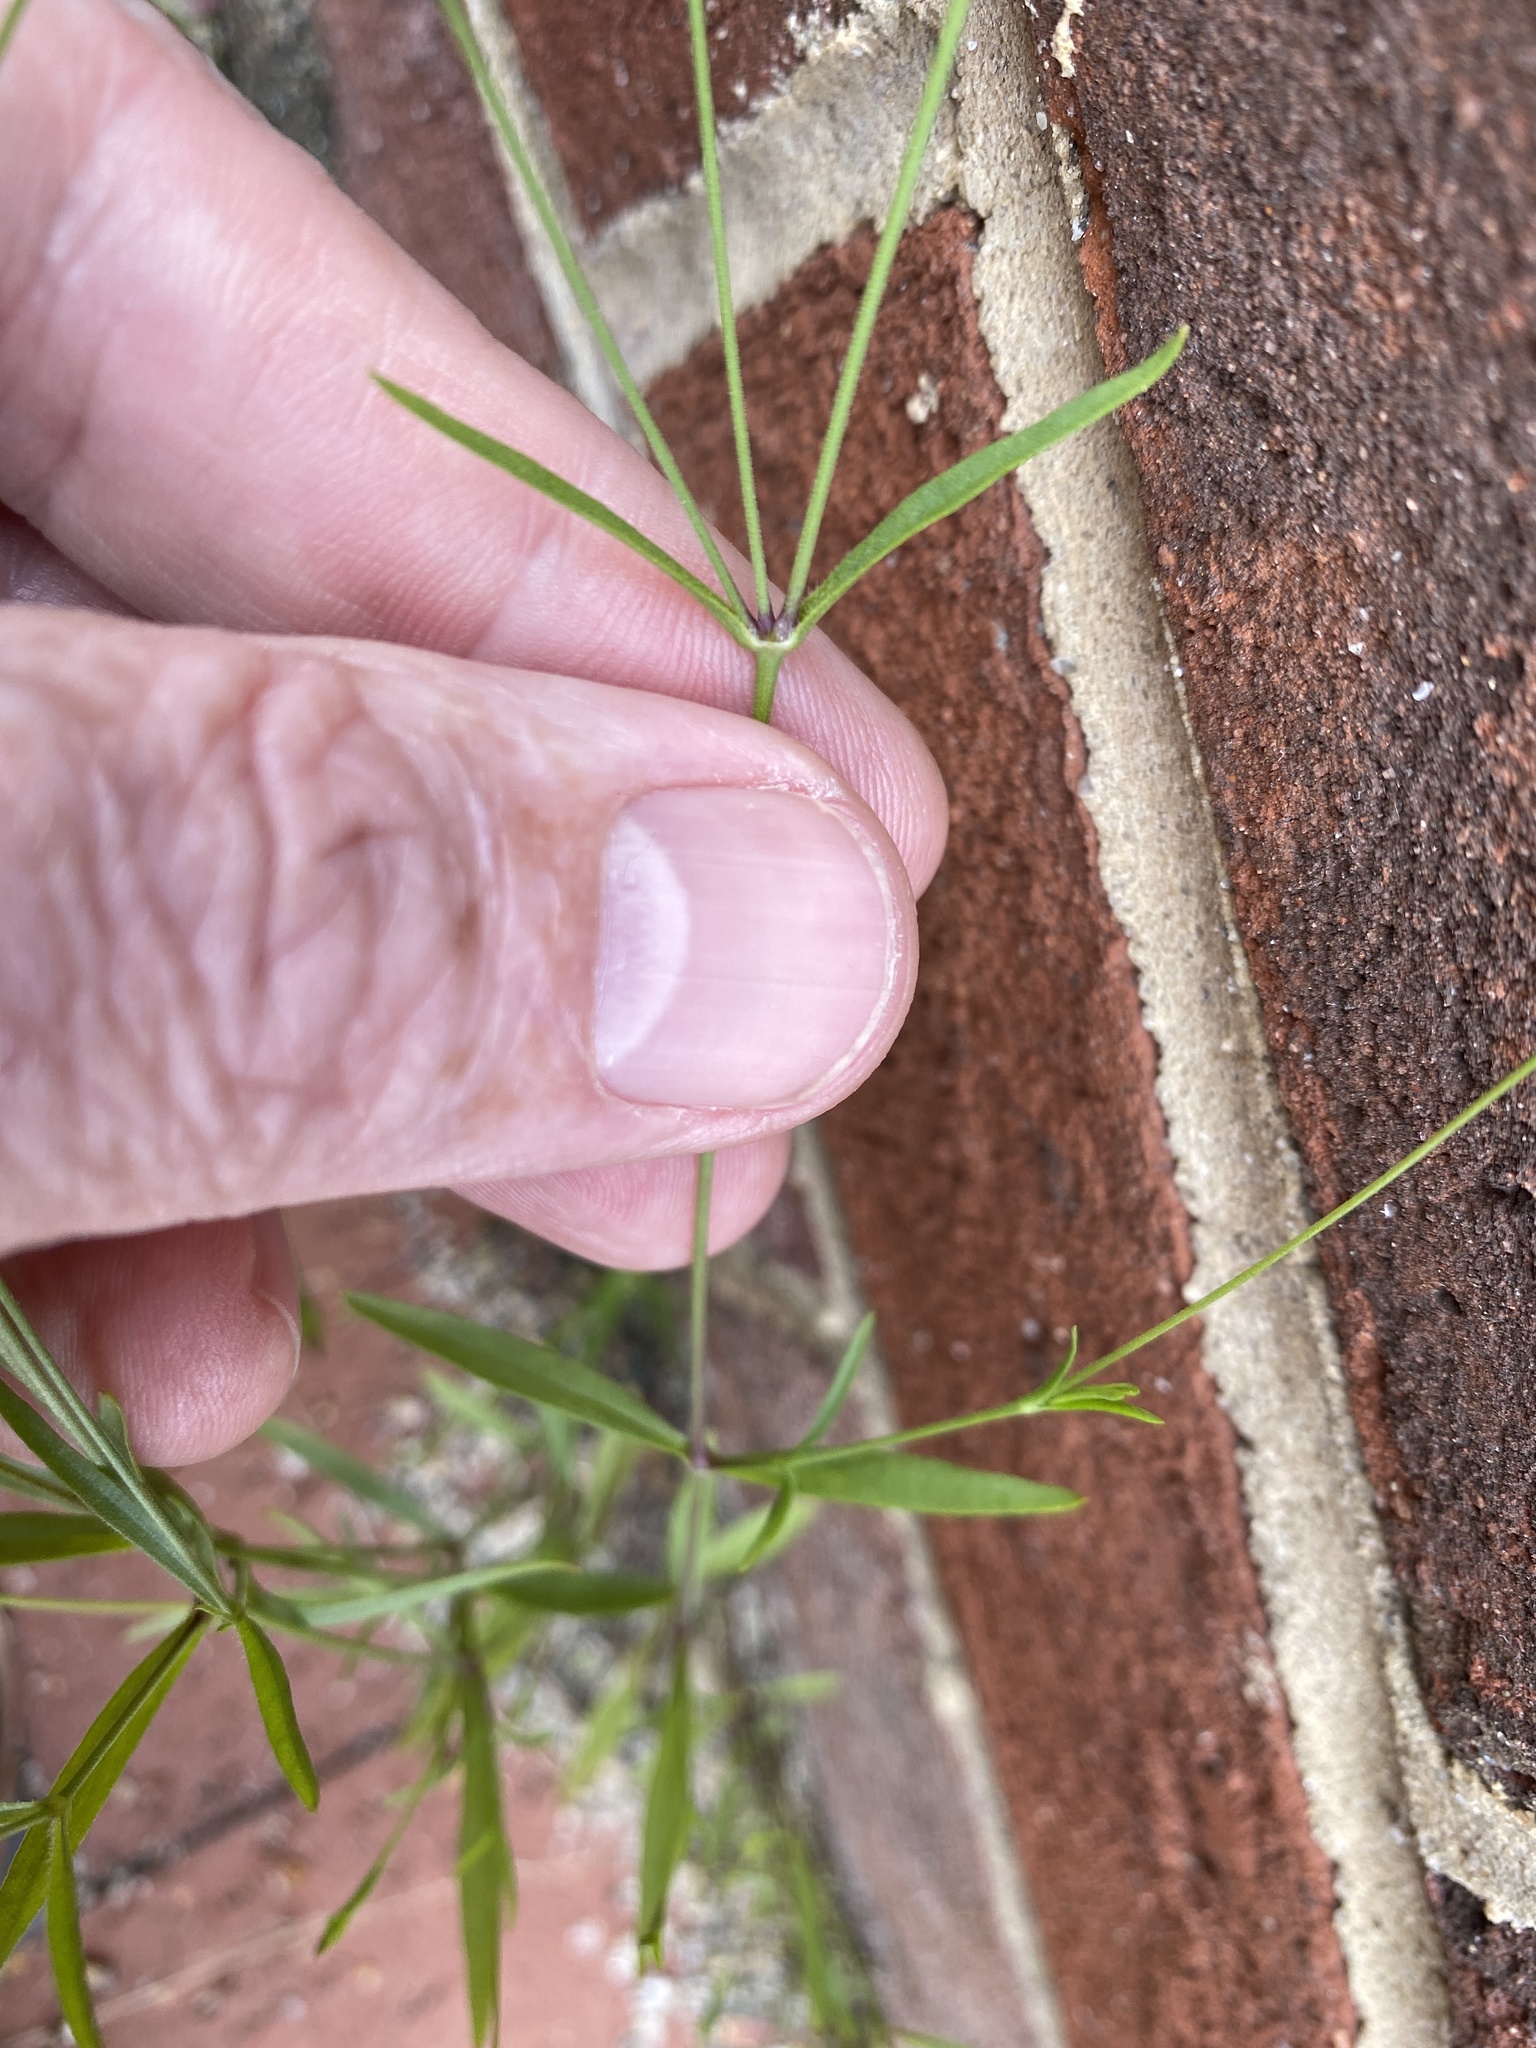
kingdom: Plantae
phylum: Tracheophyta
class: Magnoliopsida
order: Caryophyllales
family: Caryophyllaceae
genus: Silene
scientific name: Silene antirrhina
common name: Sleepy catchfly
